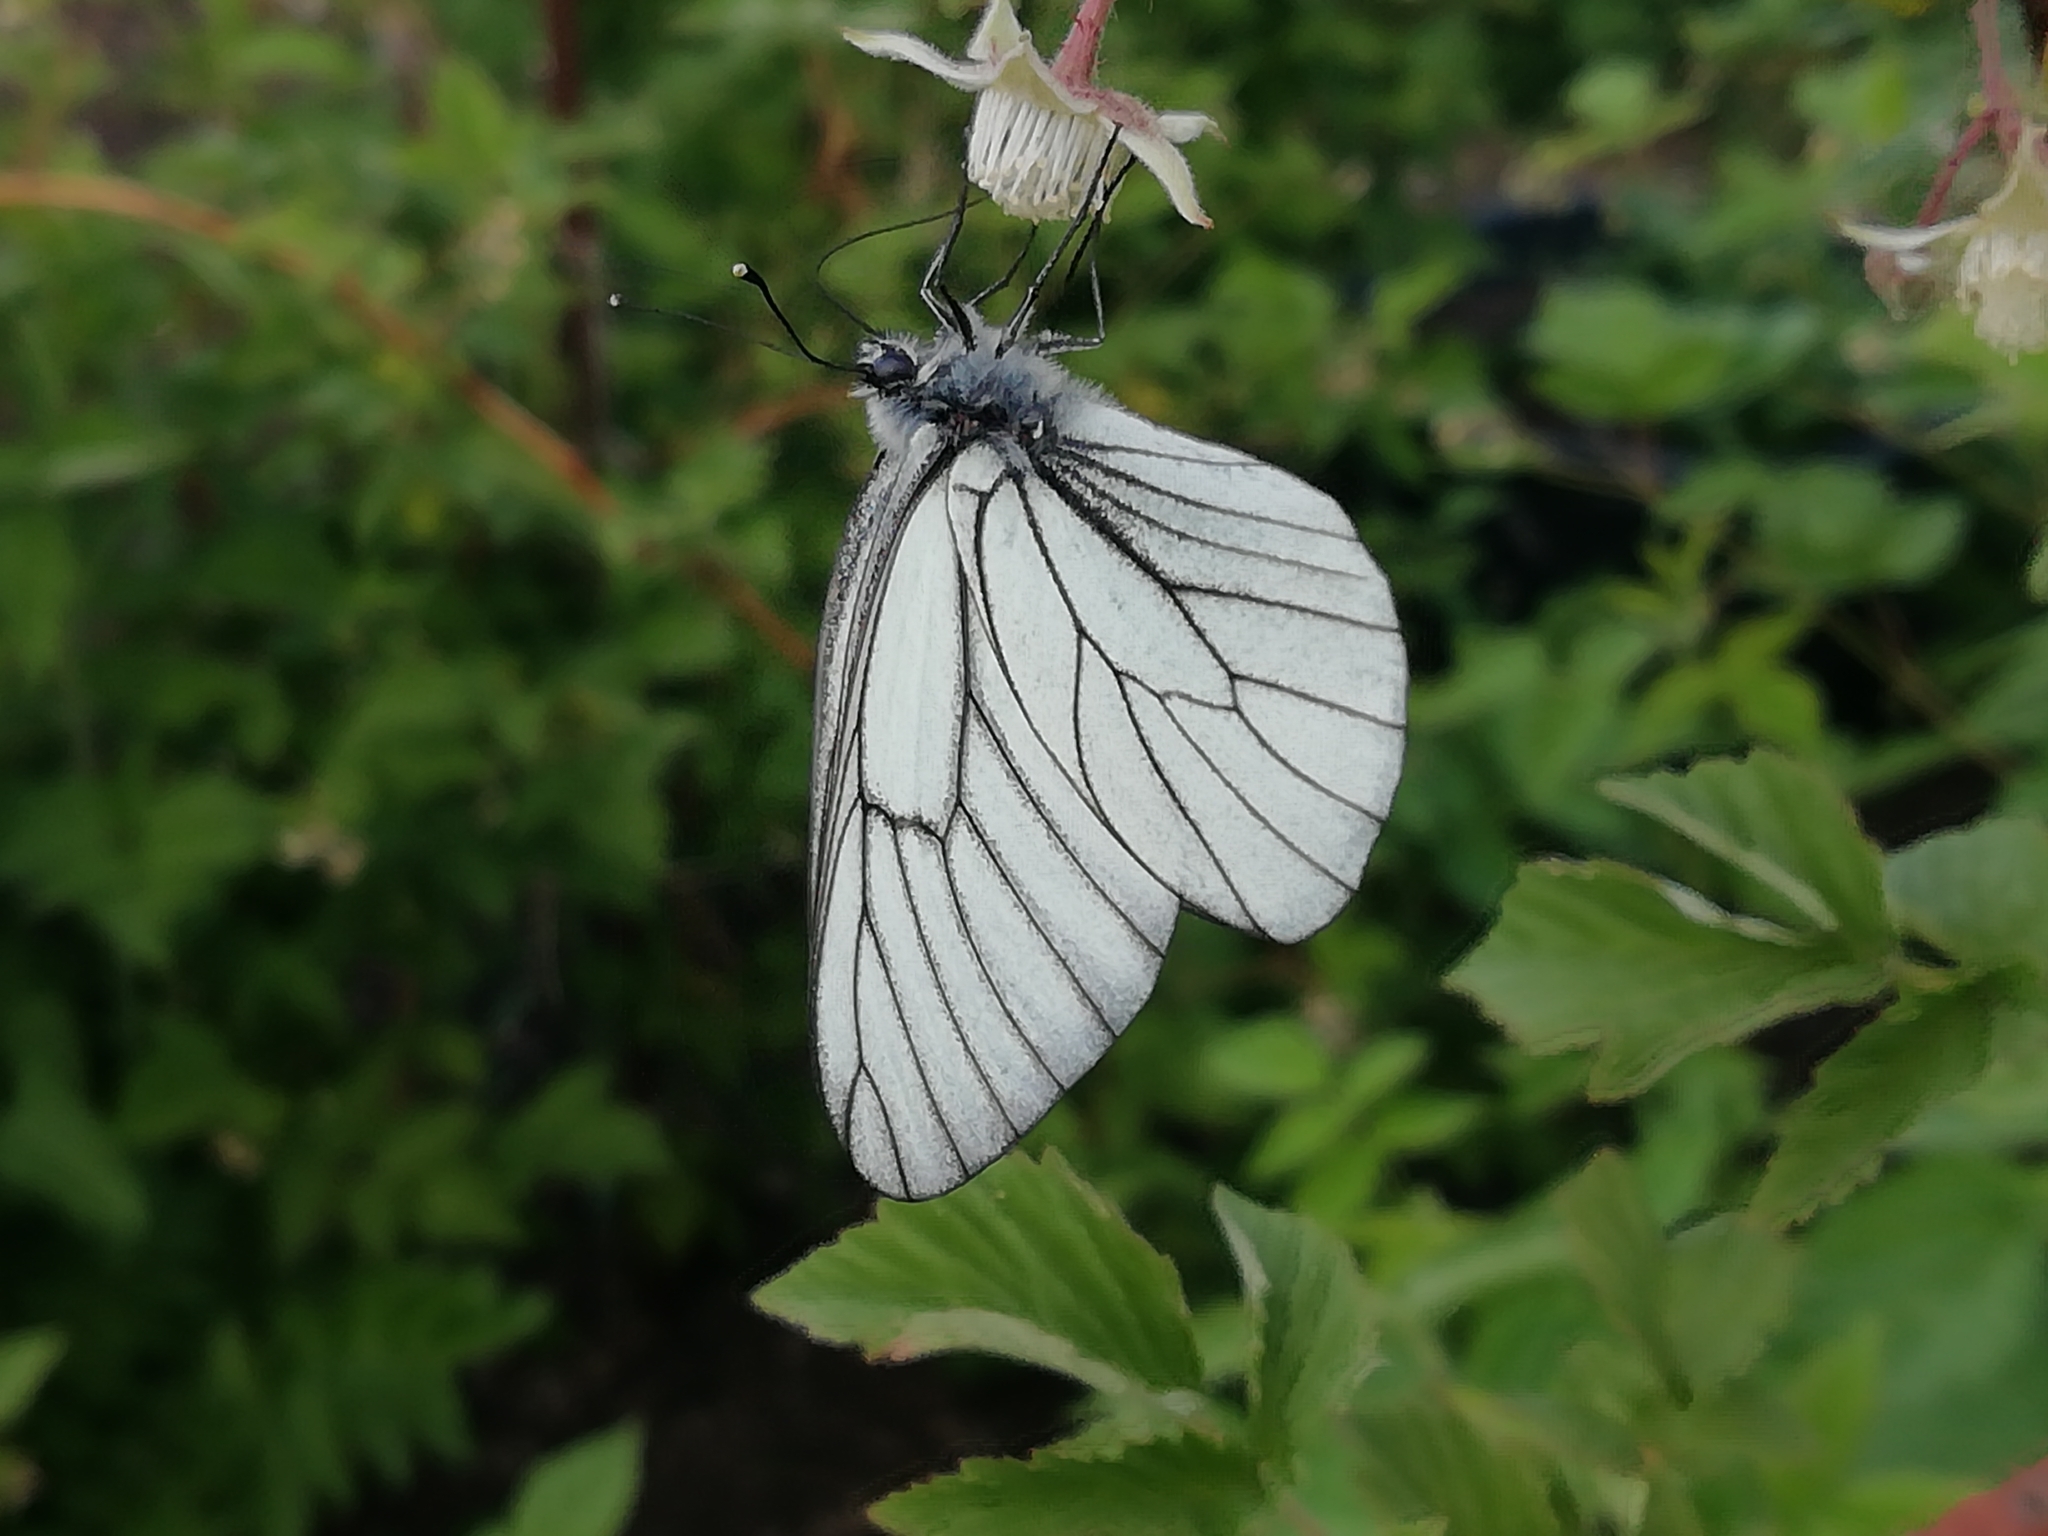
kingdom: Animalia
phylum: Arthropoda
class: Insecta
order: Lepidoptera
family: Pieridae
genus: Aporia
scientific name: Aporia crataegi
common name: Black-veined white
